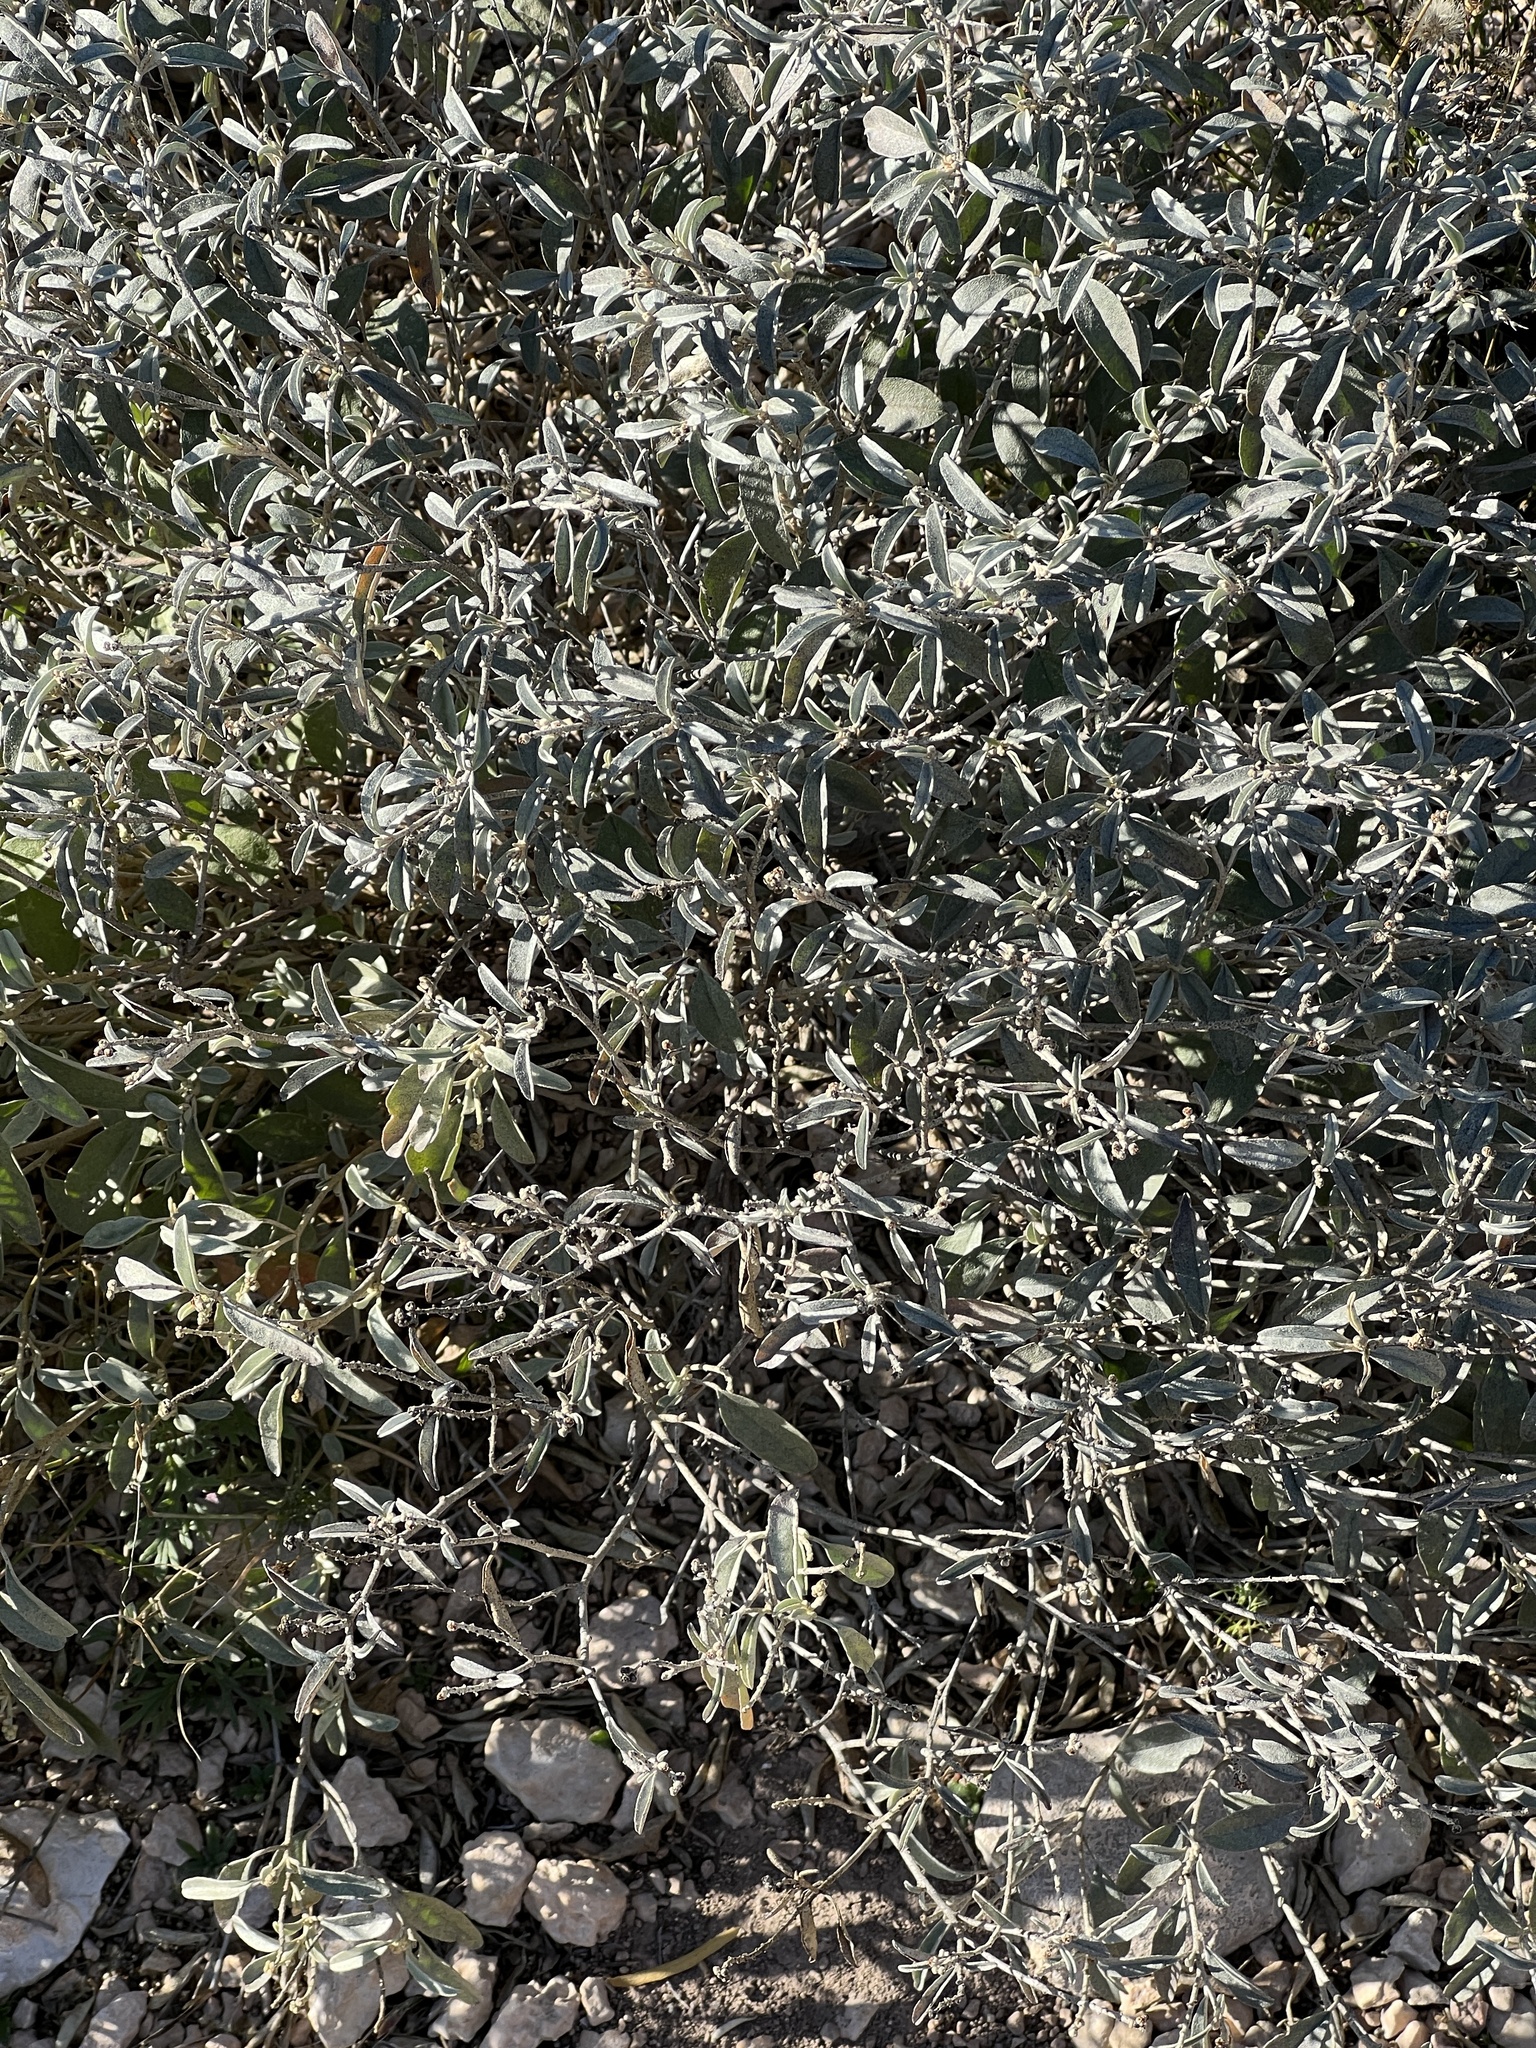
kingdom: Plantae
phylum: Tracheophyta
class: Magnoliopsida
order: Malpighiales
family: Euphorbiaceae
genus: Croton
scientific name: Croton dioicus
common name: Grassland croton
